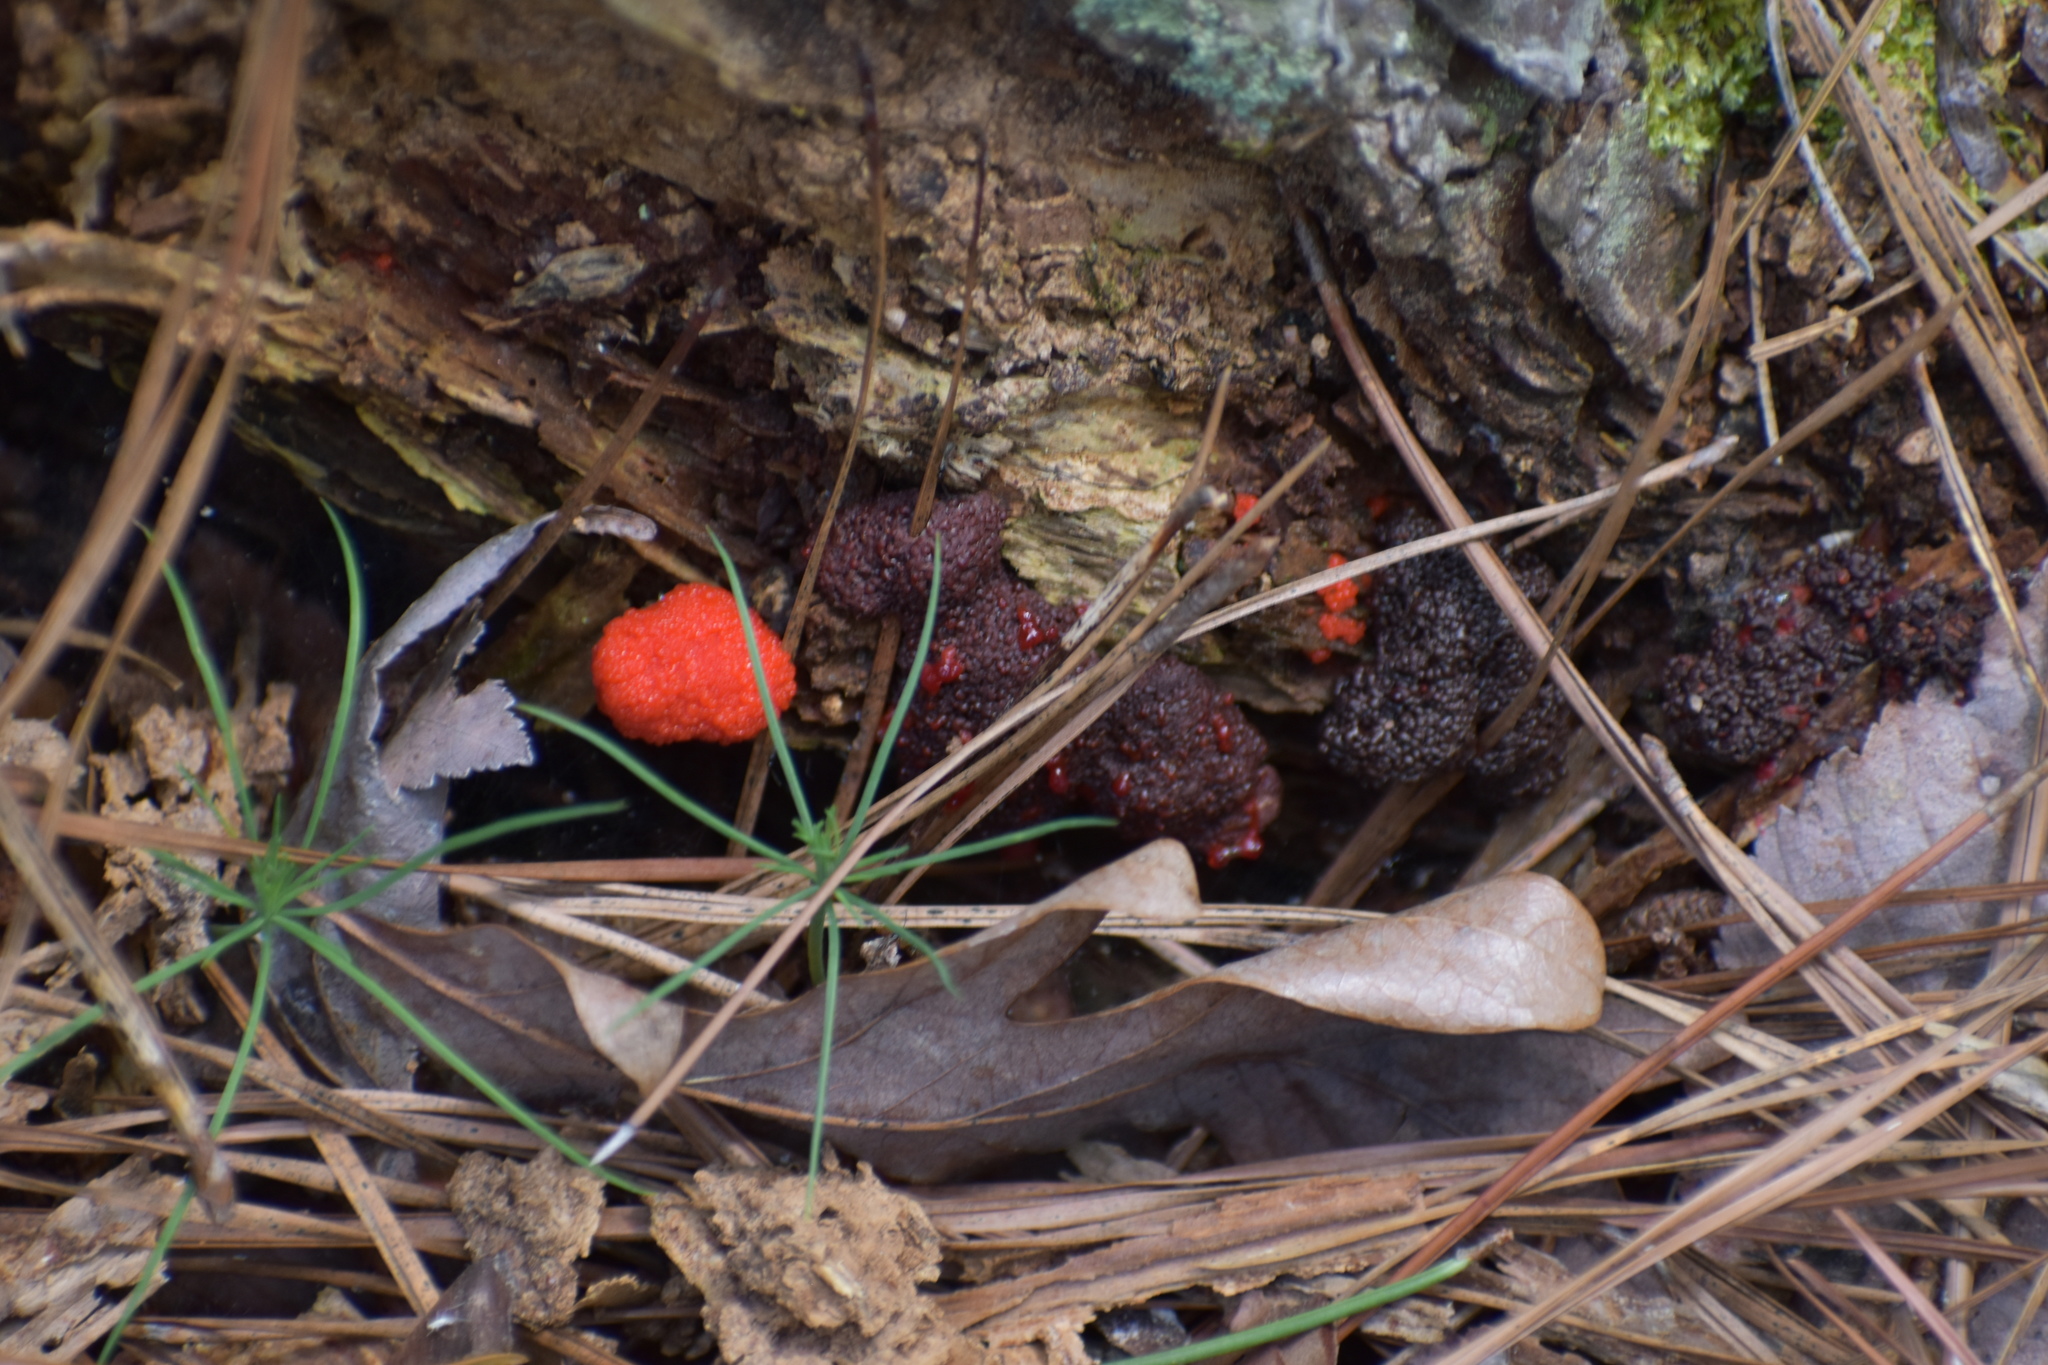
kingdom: Protozoa
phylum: Mycetozoa
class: Myxomycetes
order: Cribrariales
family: Tubiferaceae
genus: Tubifera
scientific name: Tubifera ferruginosa
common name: Red raspberry slime mold
